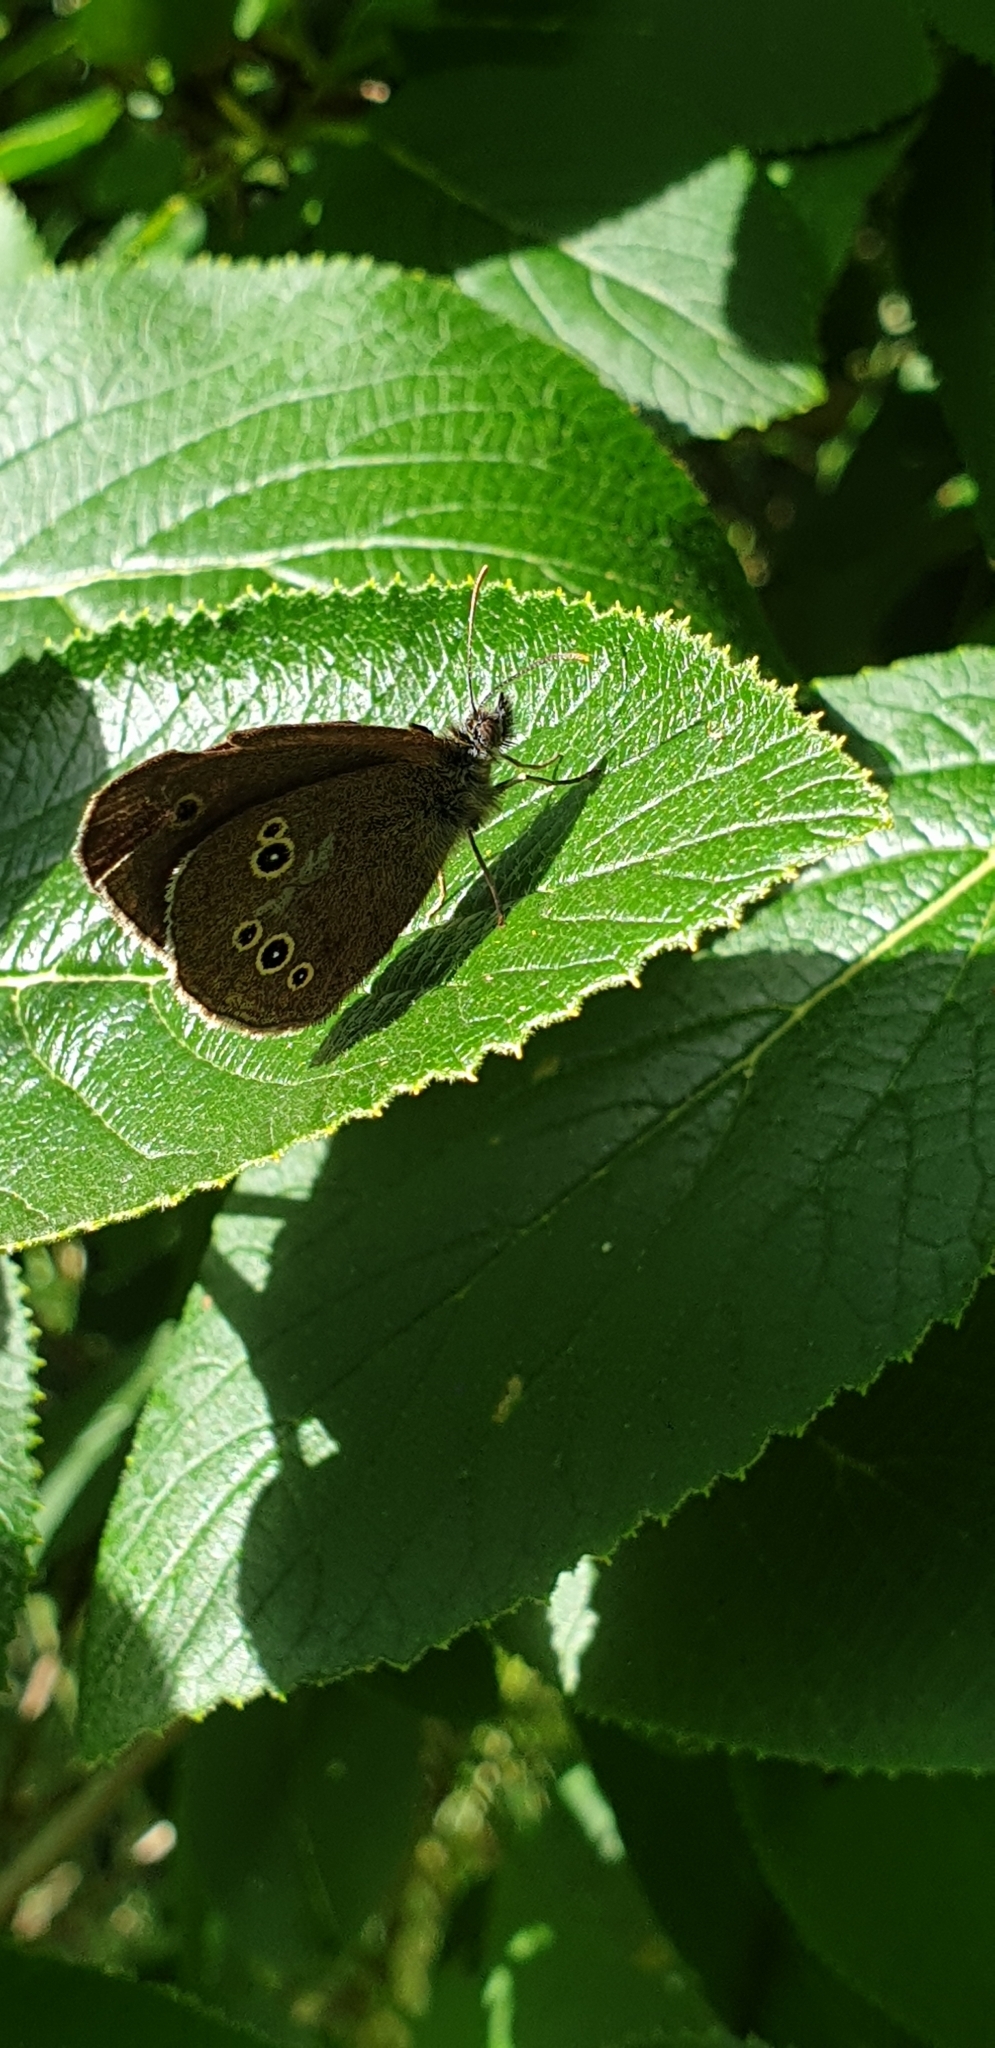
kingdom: Animalia
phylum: Arthropoda
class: Insecta
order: Lepidoptera
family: Nymphalidae
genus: Aphantopus
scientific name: Aphantopus hyperantus
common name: Ringlet
